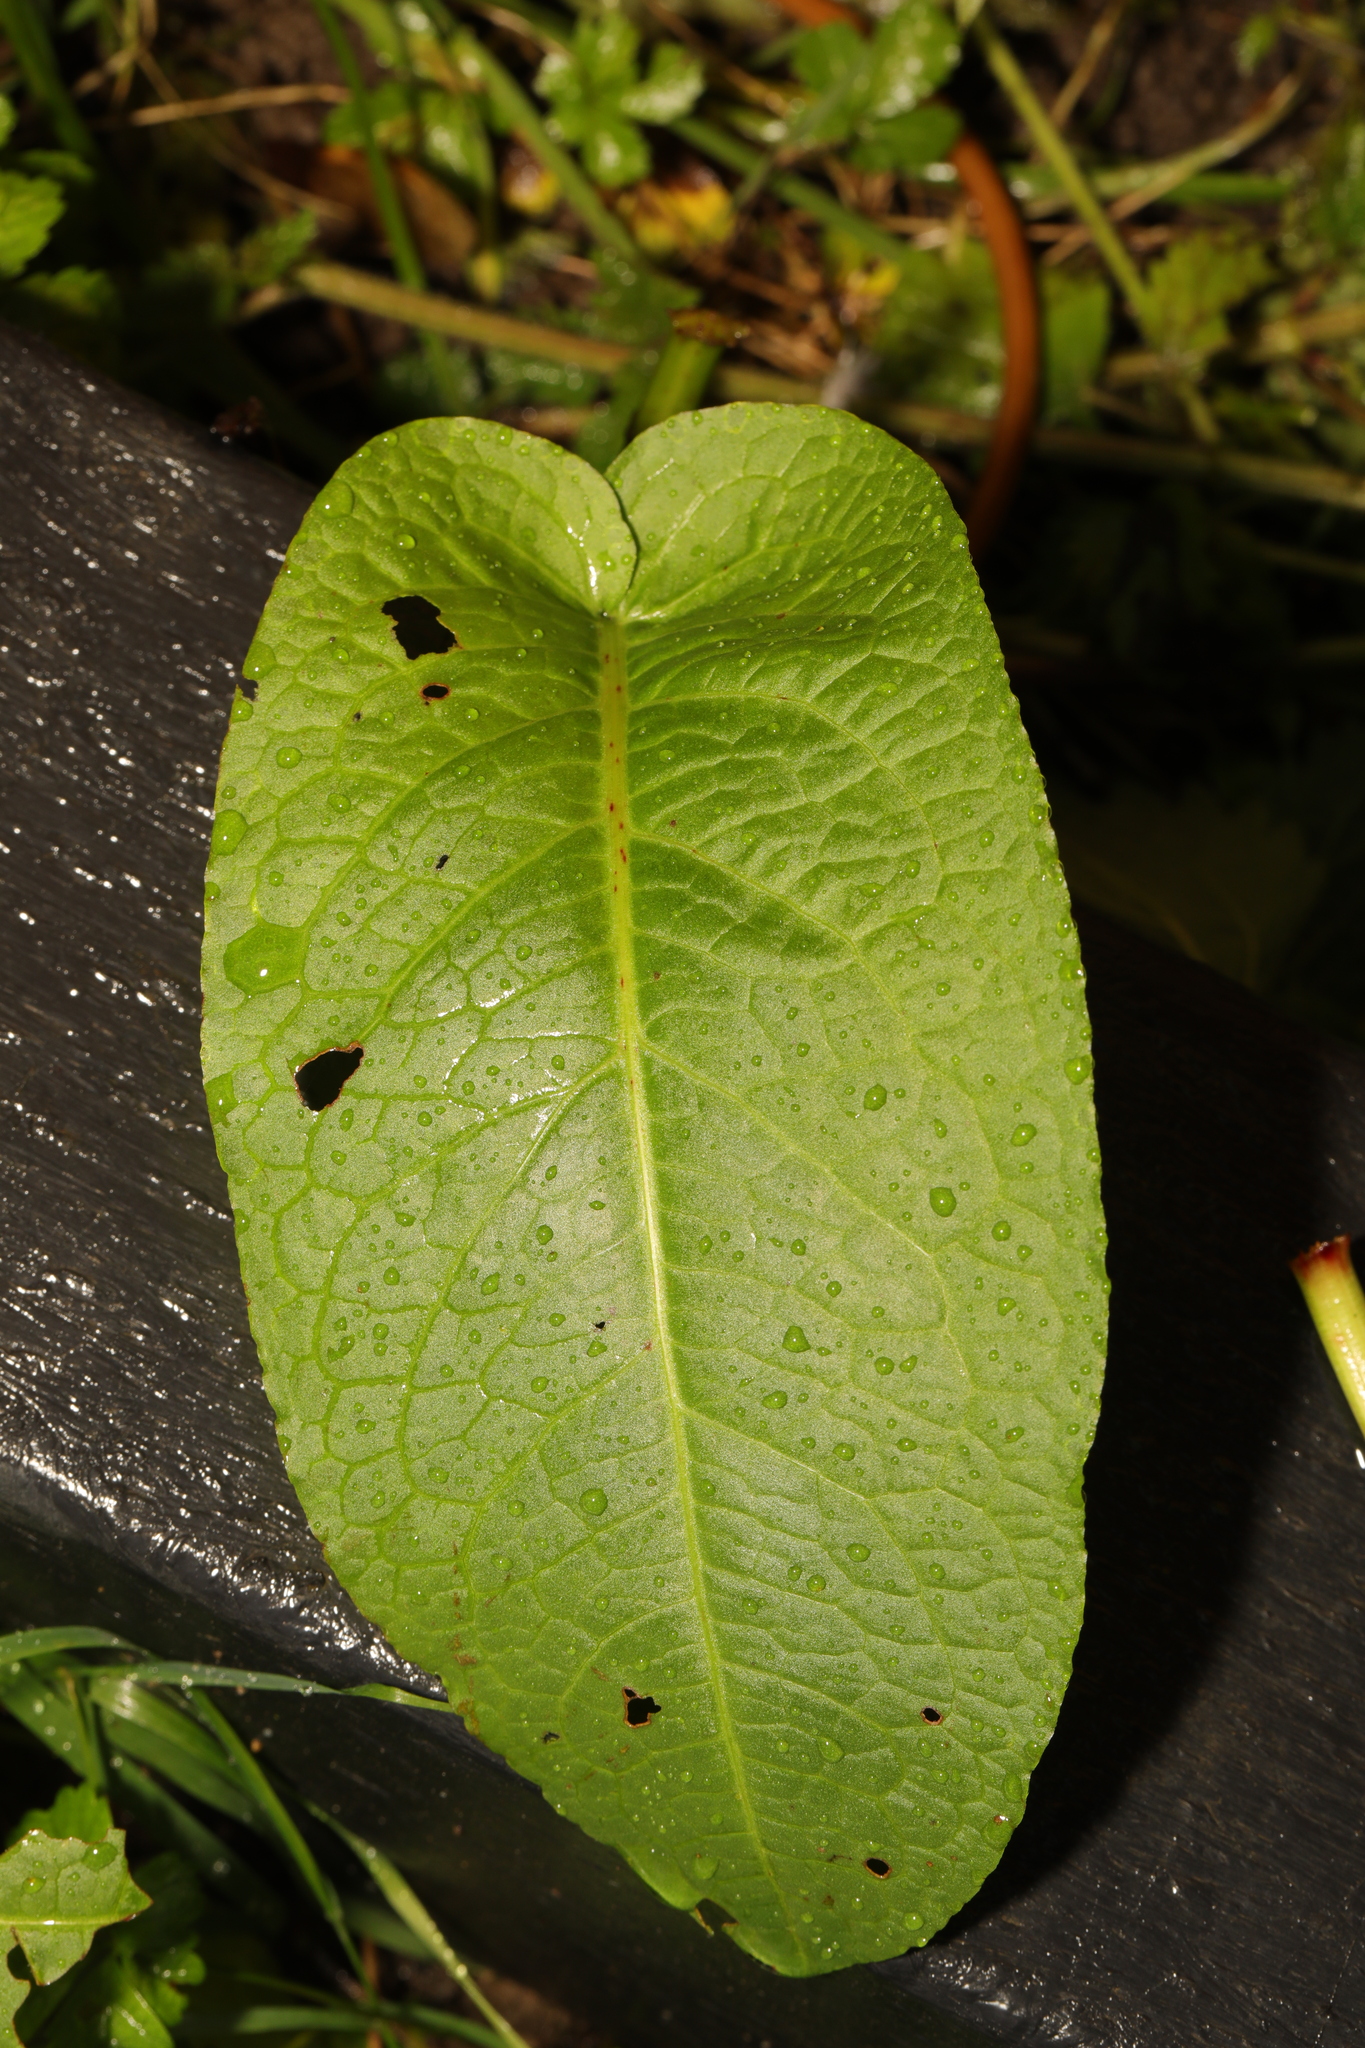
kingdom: Plantae
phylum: Tracheophyta
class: Magnoliopsida
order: Caryophyllales
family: Polygonaceae
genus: Rumex
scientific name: Rumex obtusifolius
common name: Bitter dock
